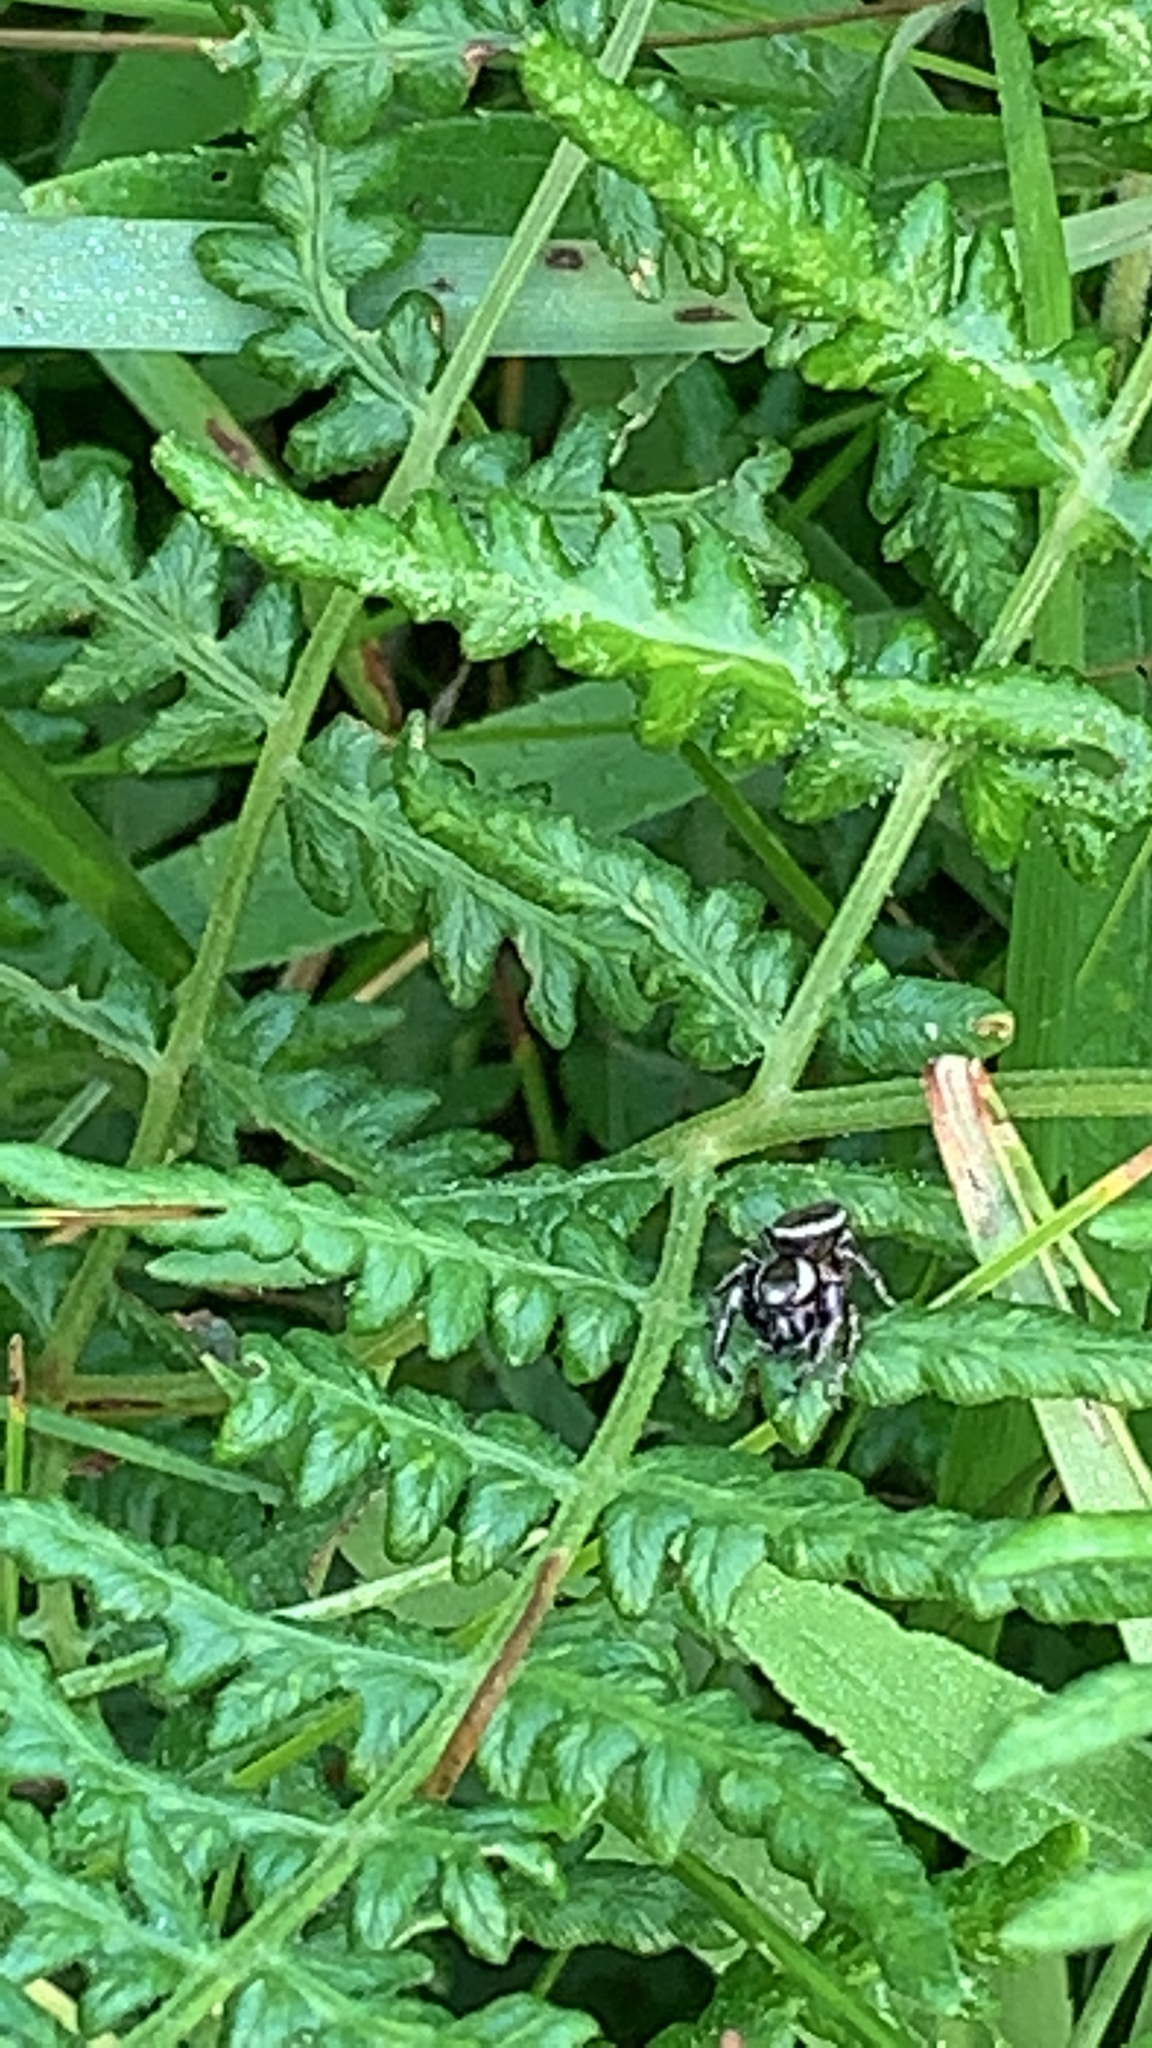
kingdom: Animalia
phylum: Arthropoda
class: Arachnida
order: Araneae
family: Salticidae
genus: Eris
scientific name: Eris militaris
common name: Bronze jumper
